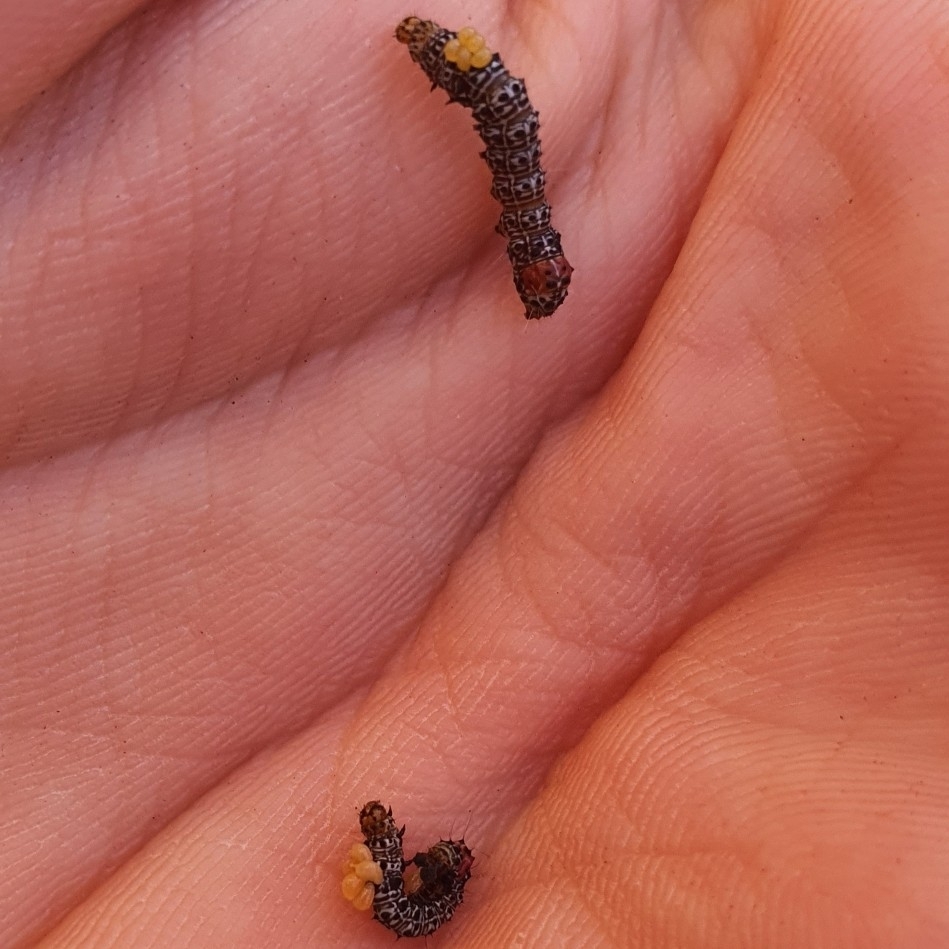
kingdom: Animalia
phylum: Arthropoda
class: Insecta
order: Lepidoptera
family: Noctuidae
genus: Phalaenoides
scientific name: Phalaenoides glycinae
